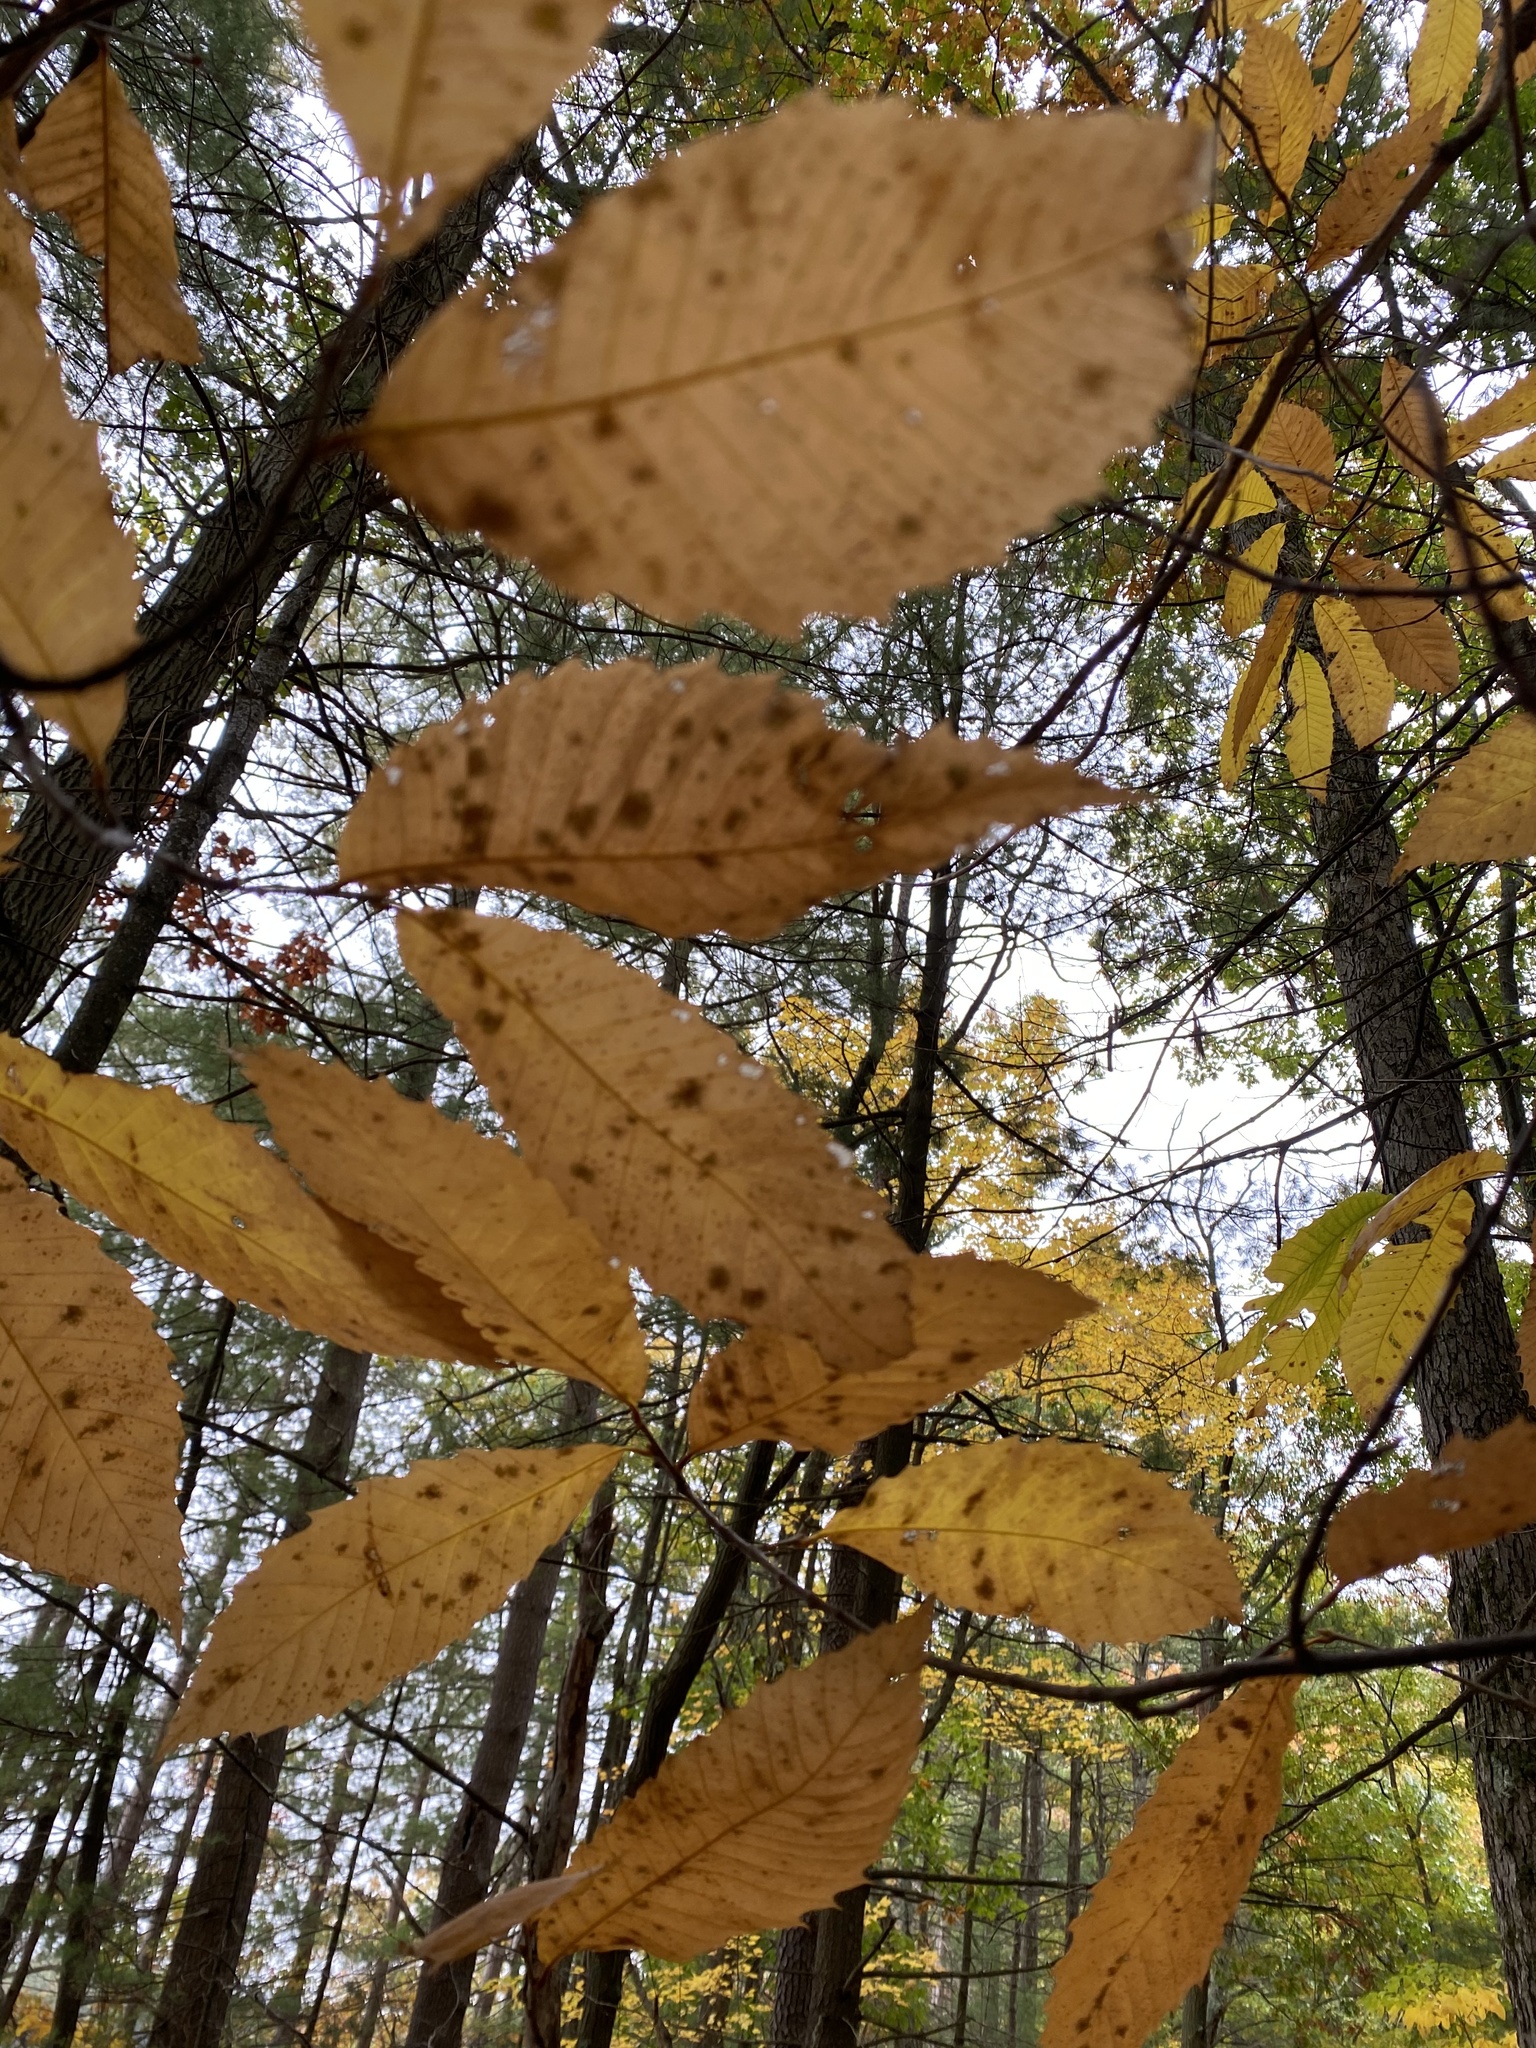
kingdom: Plantae
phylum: Tracheophyta
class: Magnoliopsida
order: Fagales
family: Fagaceae
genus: Castanea
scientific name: Castanea dentata
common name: American chestnut
